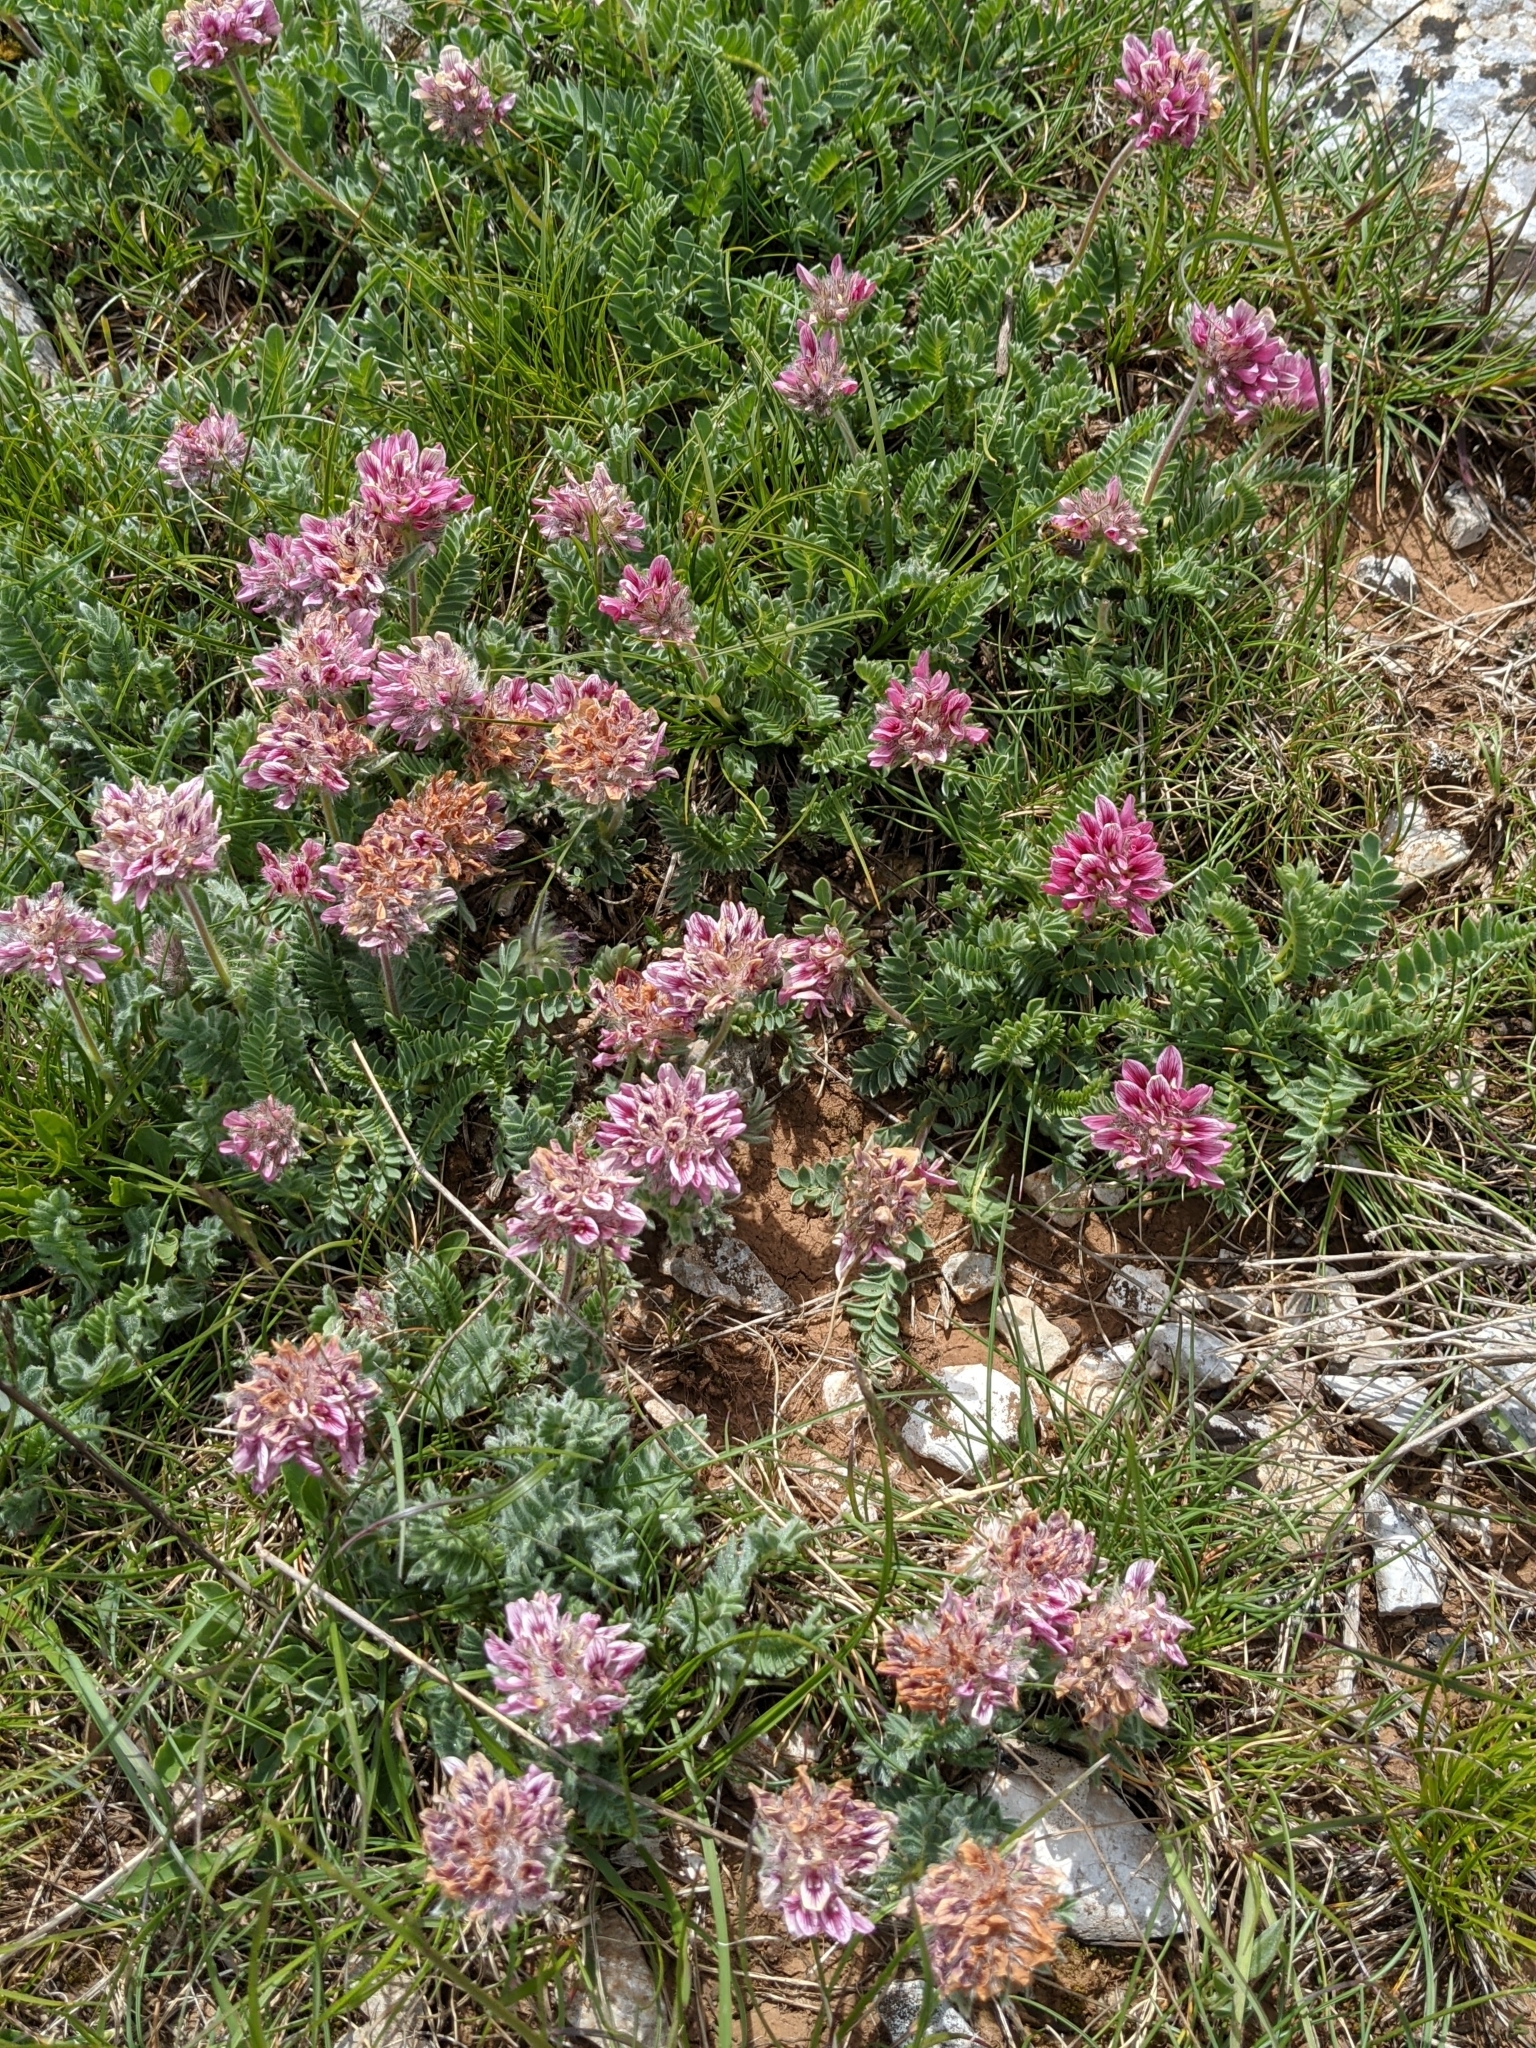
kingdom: Plantae
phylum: Tracheophyta
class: Magnoliopsida
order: Fabales
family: Fabaceae
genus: Anthyllis
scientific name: Anthyllis montana
